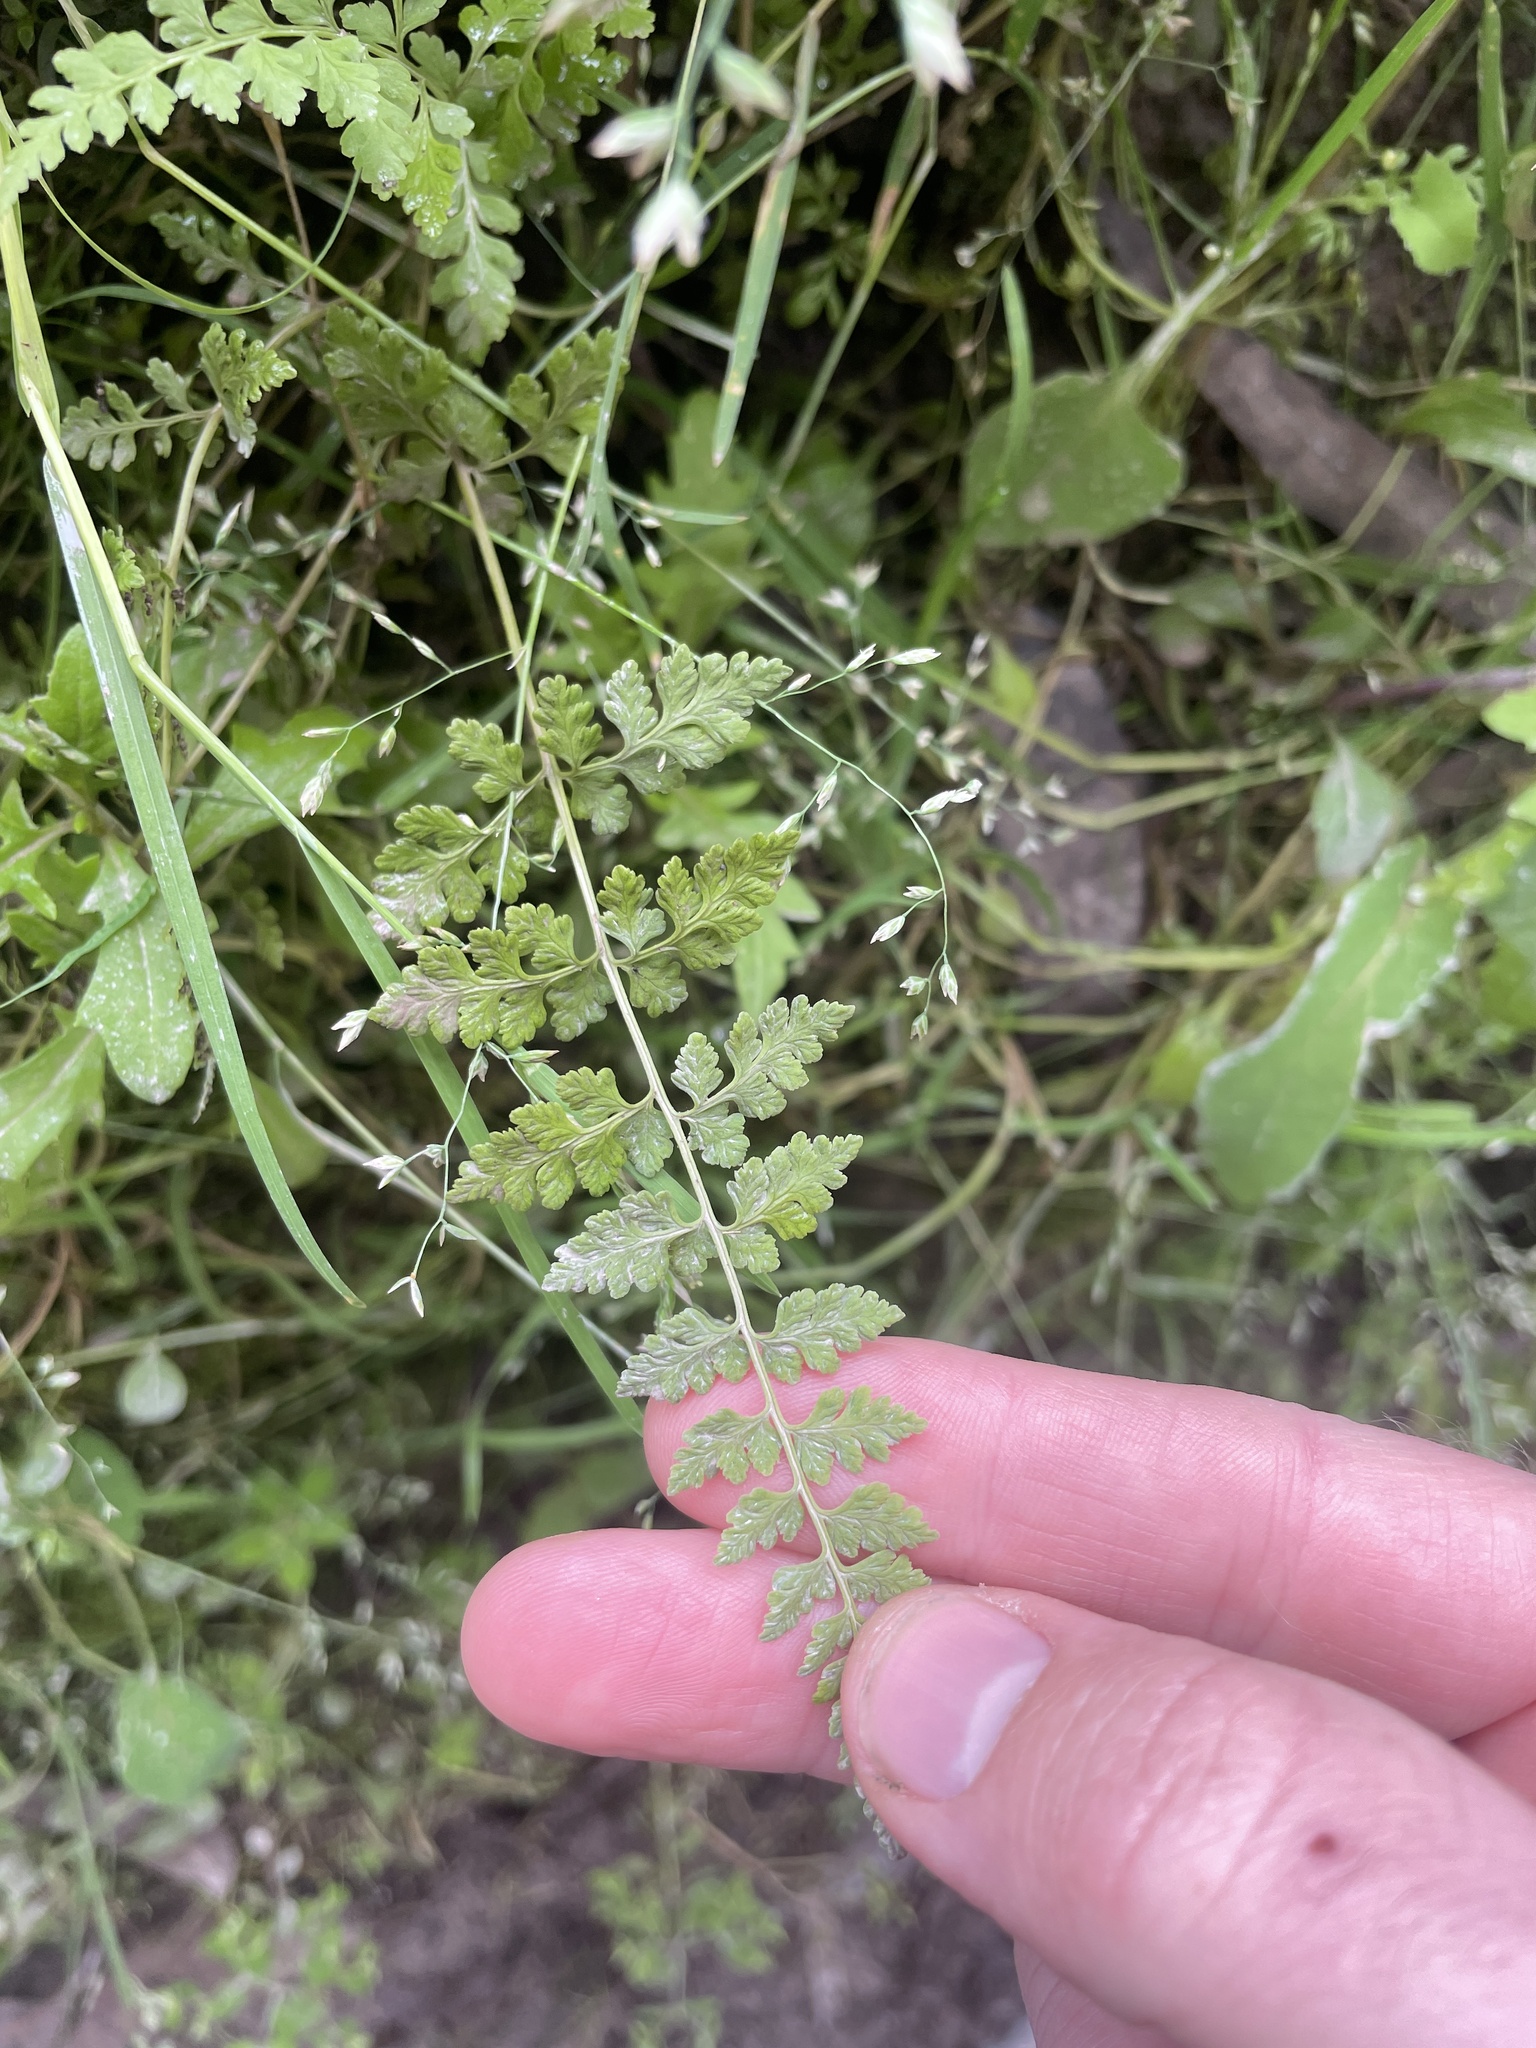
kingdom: Plantae
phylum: Tracheophyta
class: Polypodiopsida
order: Polypodiales
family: Cystopteridaceae
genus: Cystopteris
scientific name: Cystopteris fragilis
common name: Brittle bladder fern
